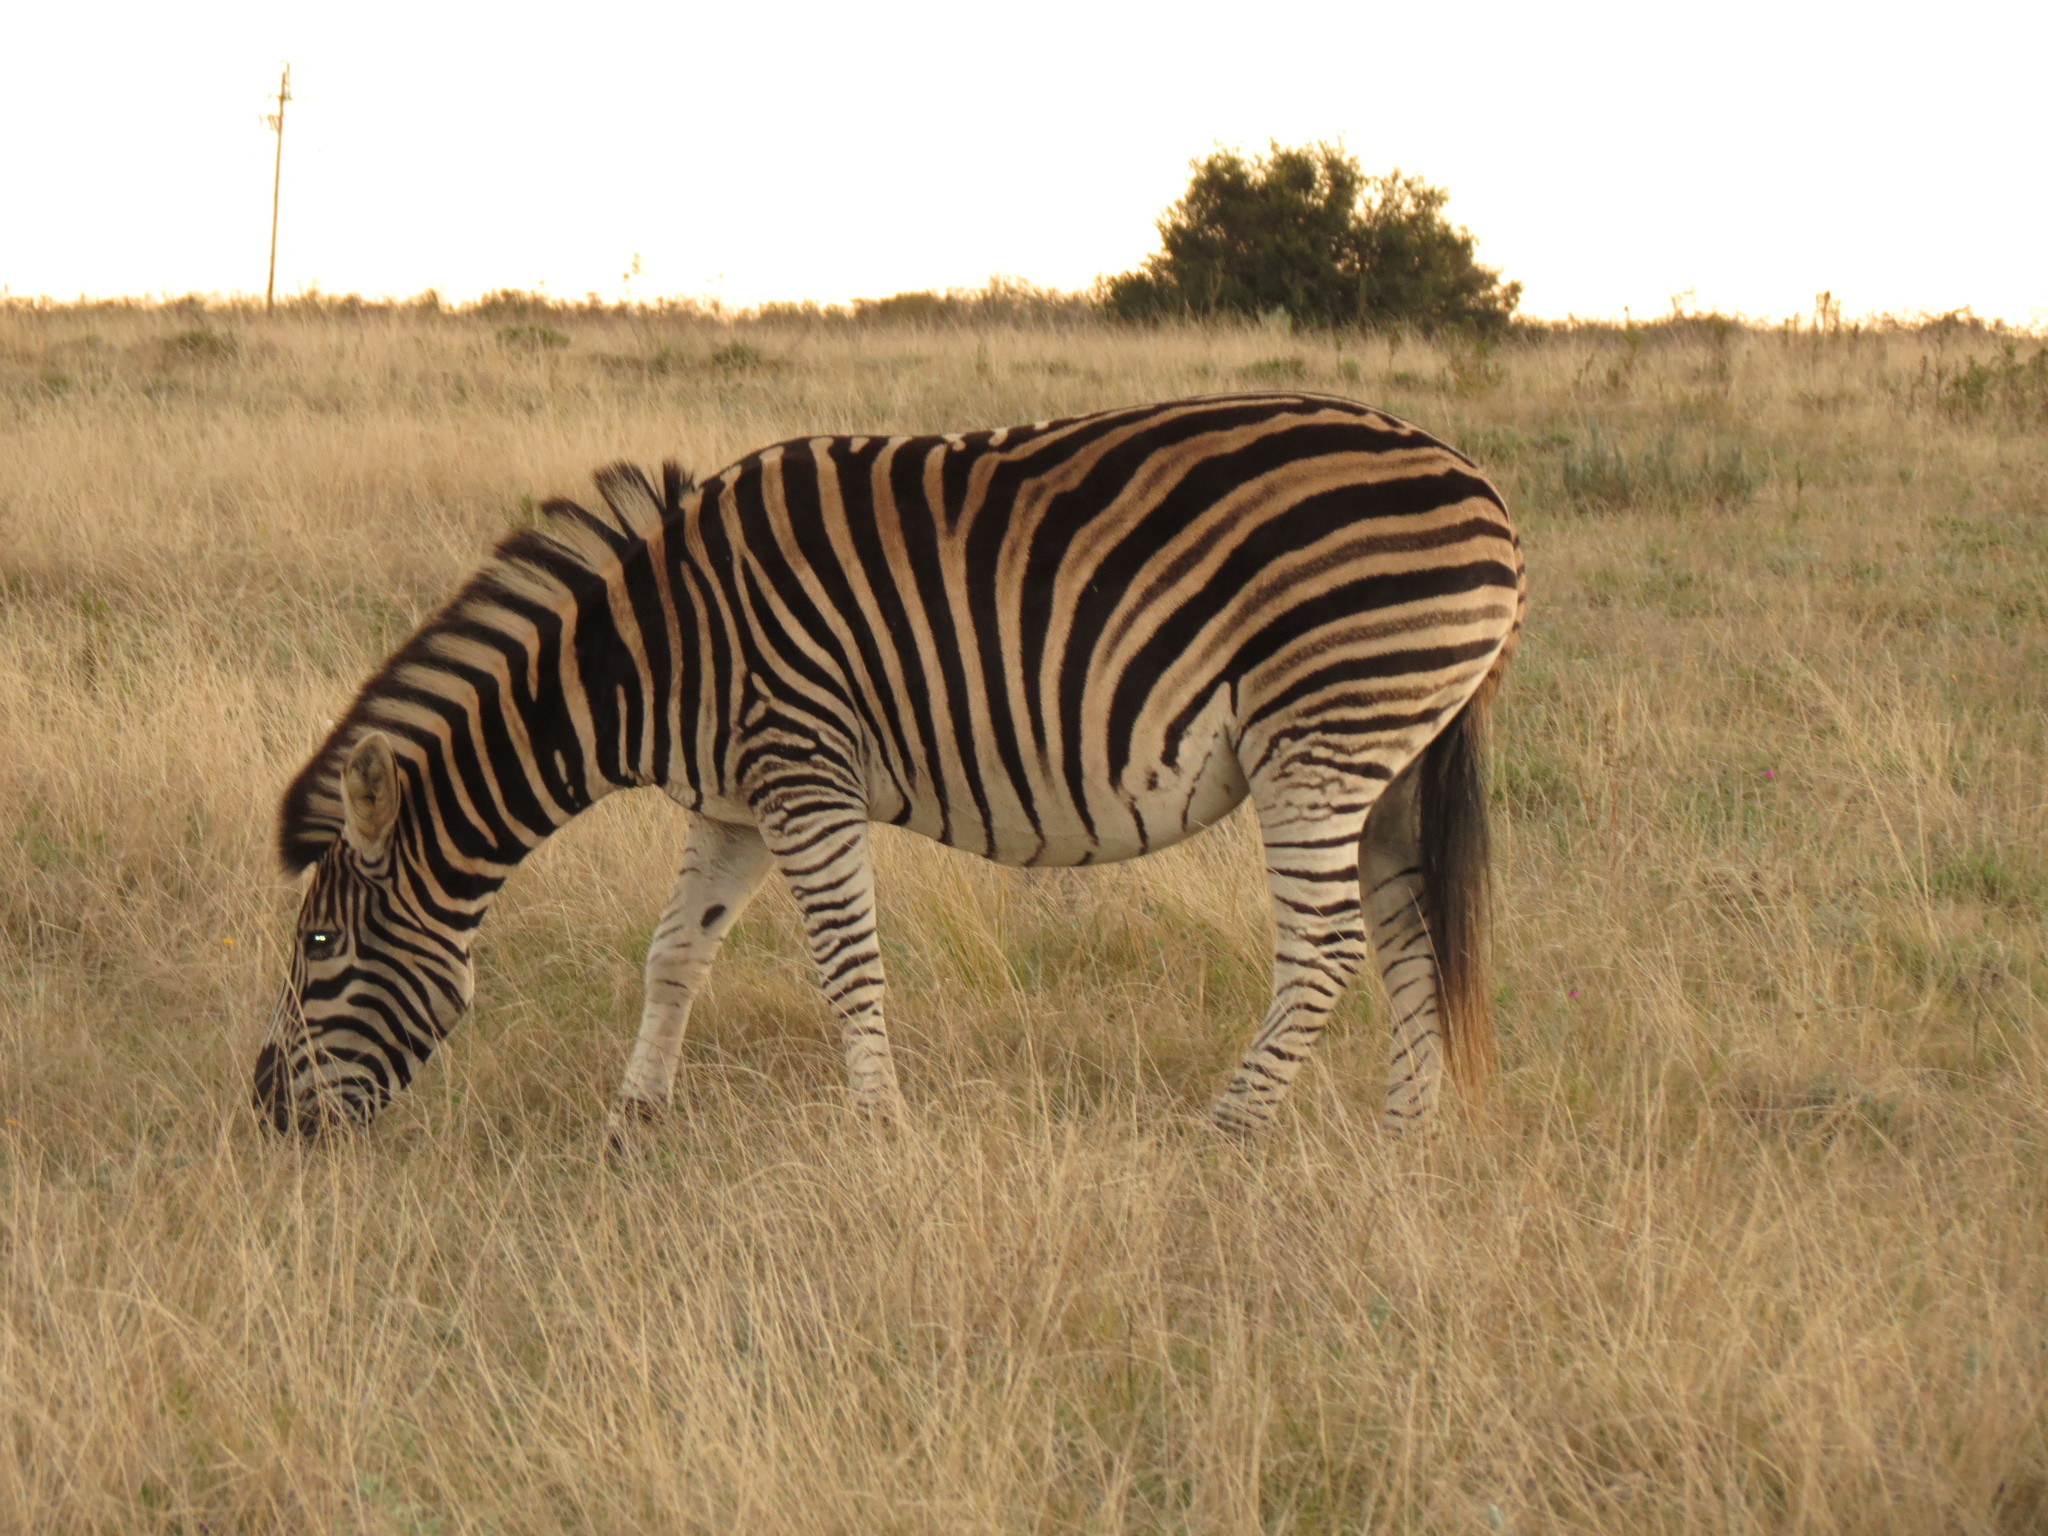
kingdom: Animalia
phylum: Chordata
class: Mammalia
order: Perissodactyla
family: Equidae
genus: Equus
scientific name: Equus quagga
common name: Plains zebra
